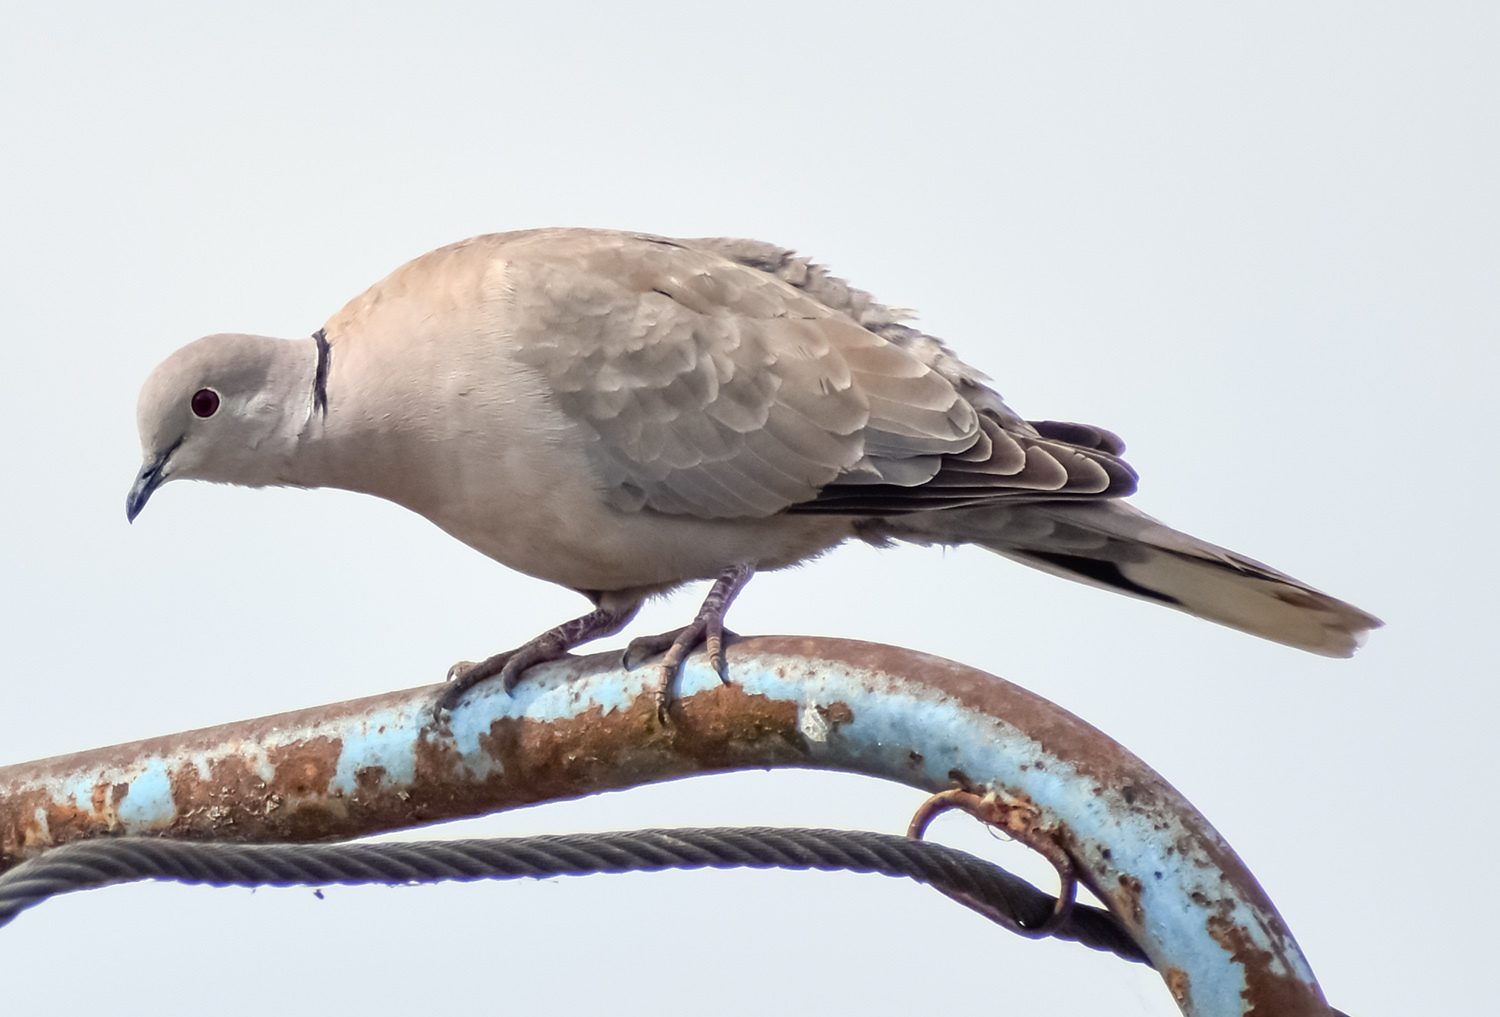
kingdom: Animalia
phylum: Chordata
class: Aves
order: Columbiformes
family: Columbidae
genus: Streptopelia
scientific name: Streptopelia decaocto
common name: Eurasian collared dove
